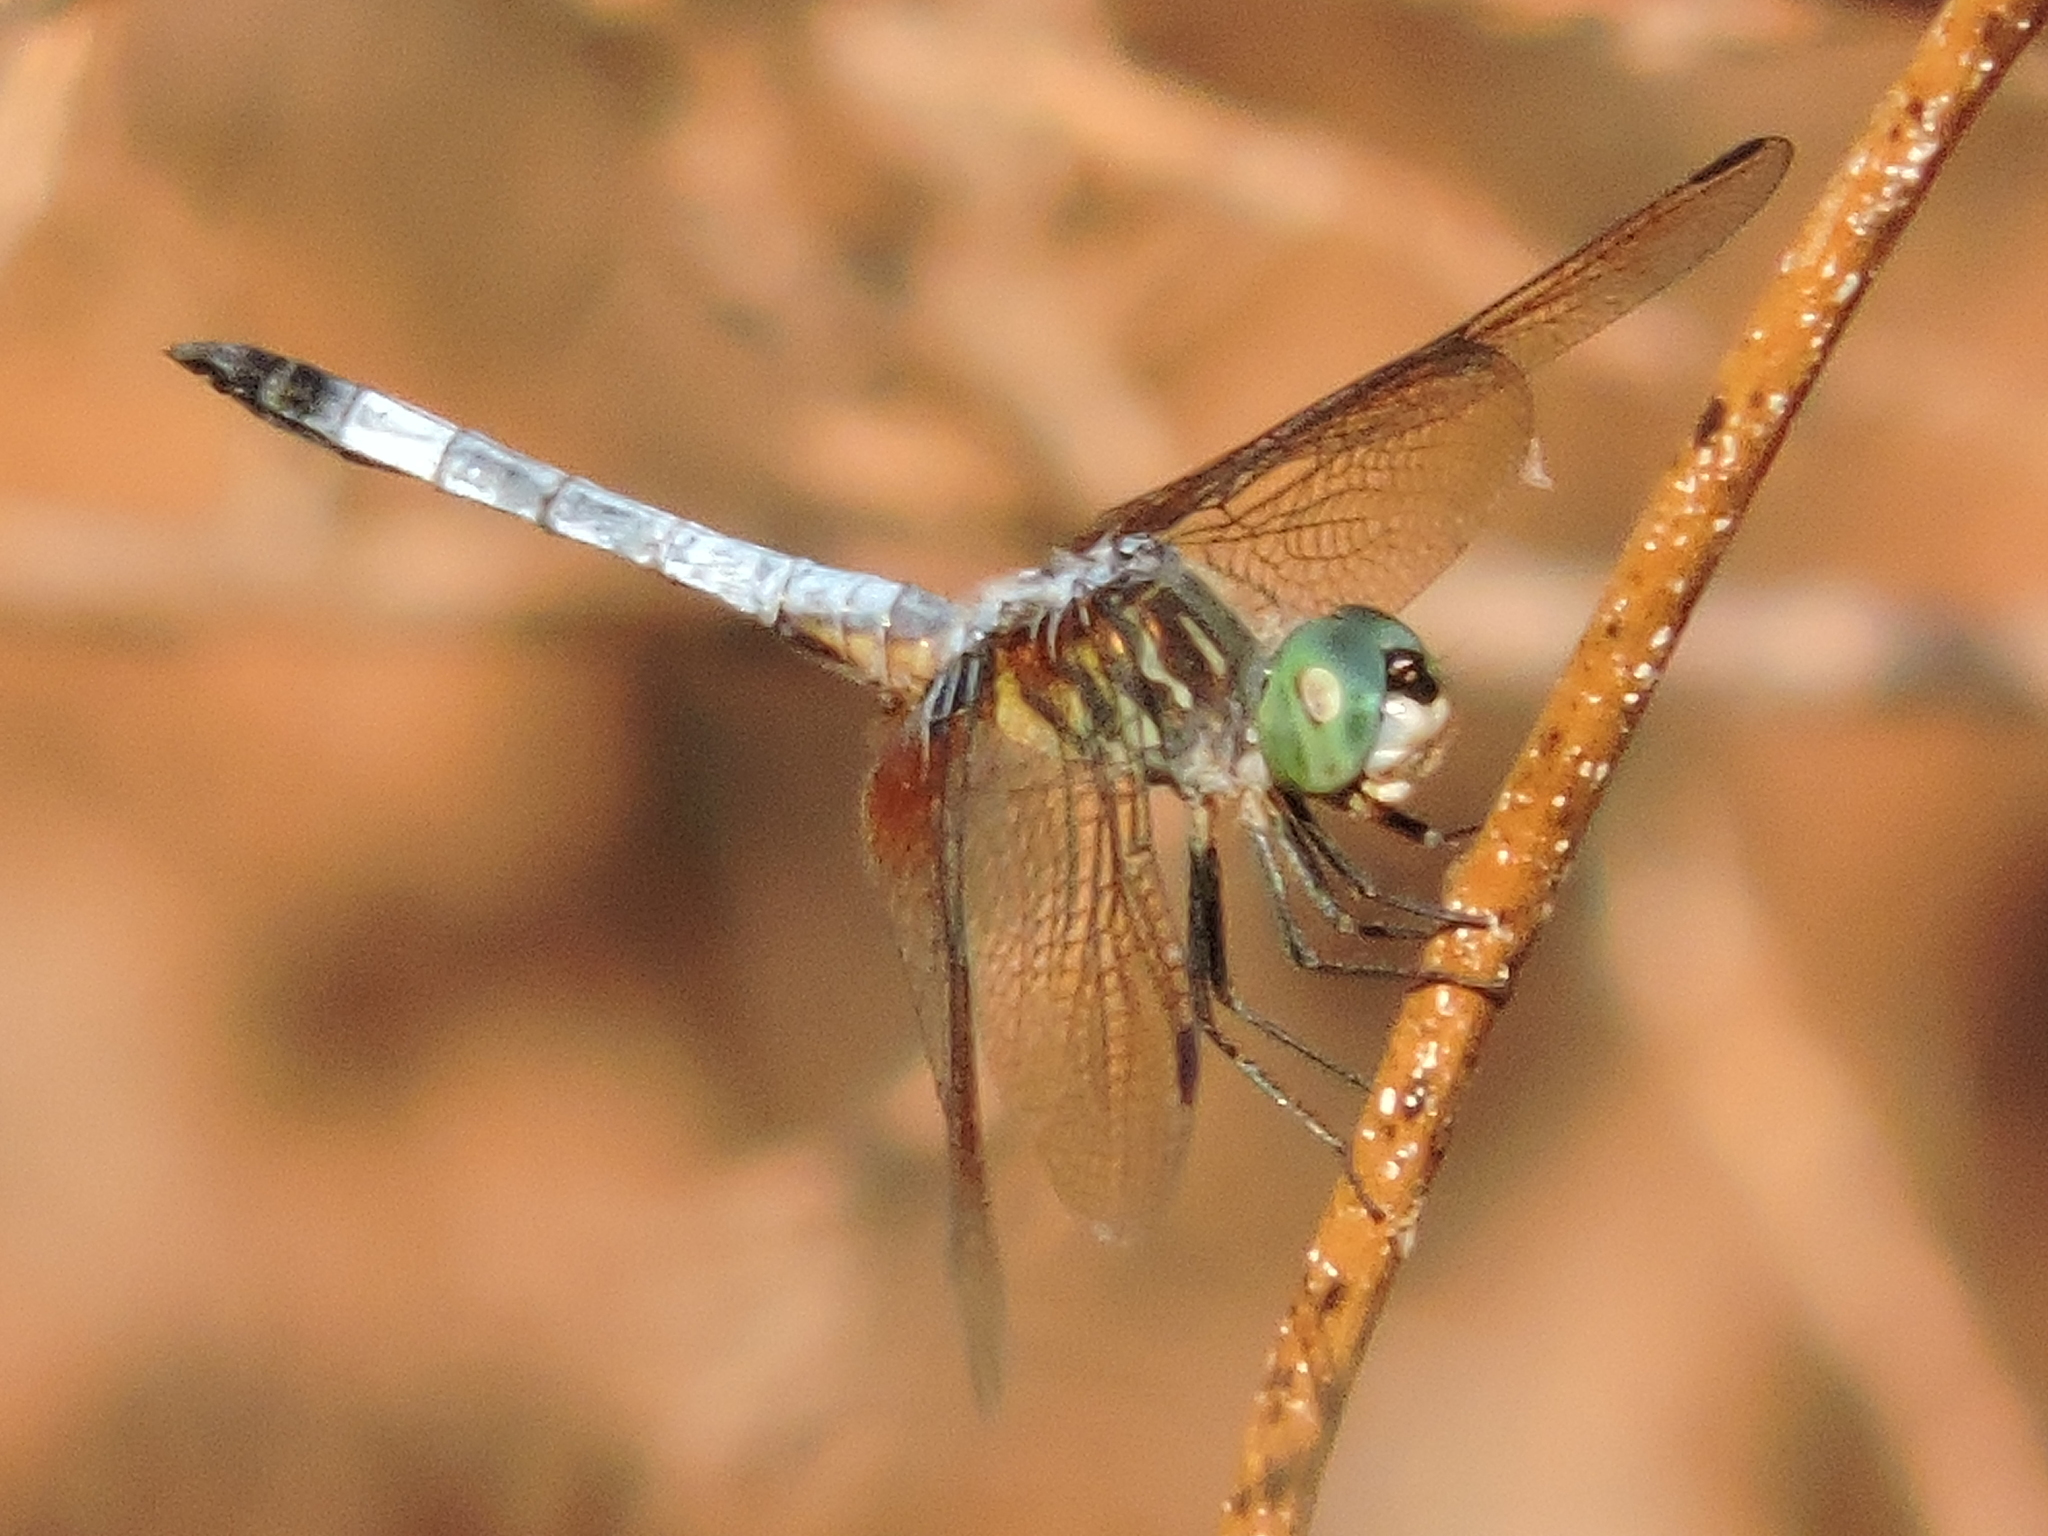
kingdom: Animalia
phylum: Arthropoda
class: Insecta
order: Odonata
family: Libellulidae
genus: Pachydiplax
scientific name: Pachydiplax longipennis
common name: Blue dasher
